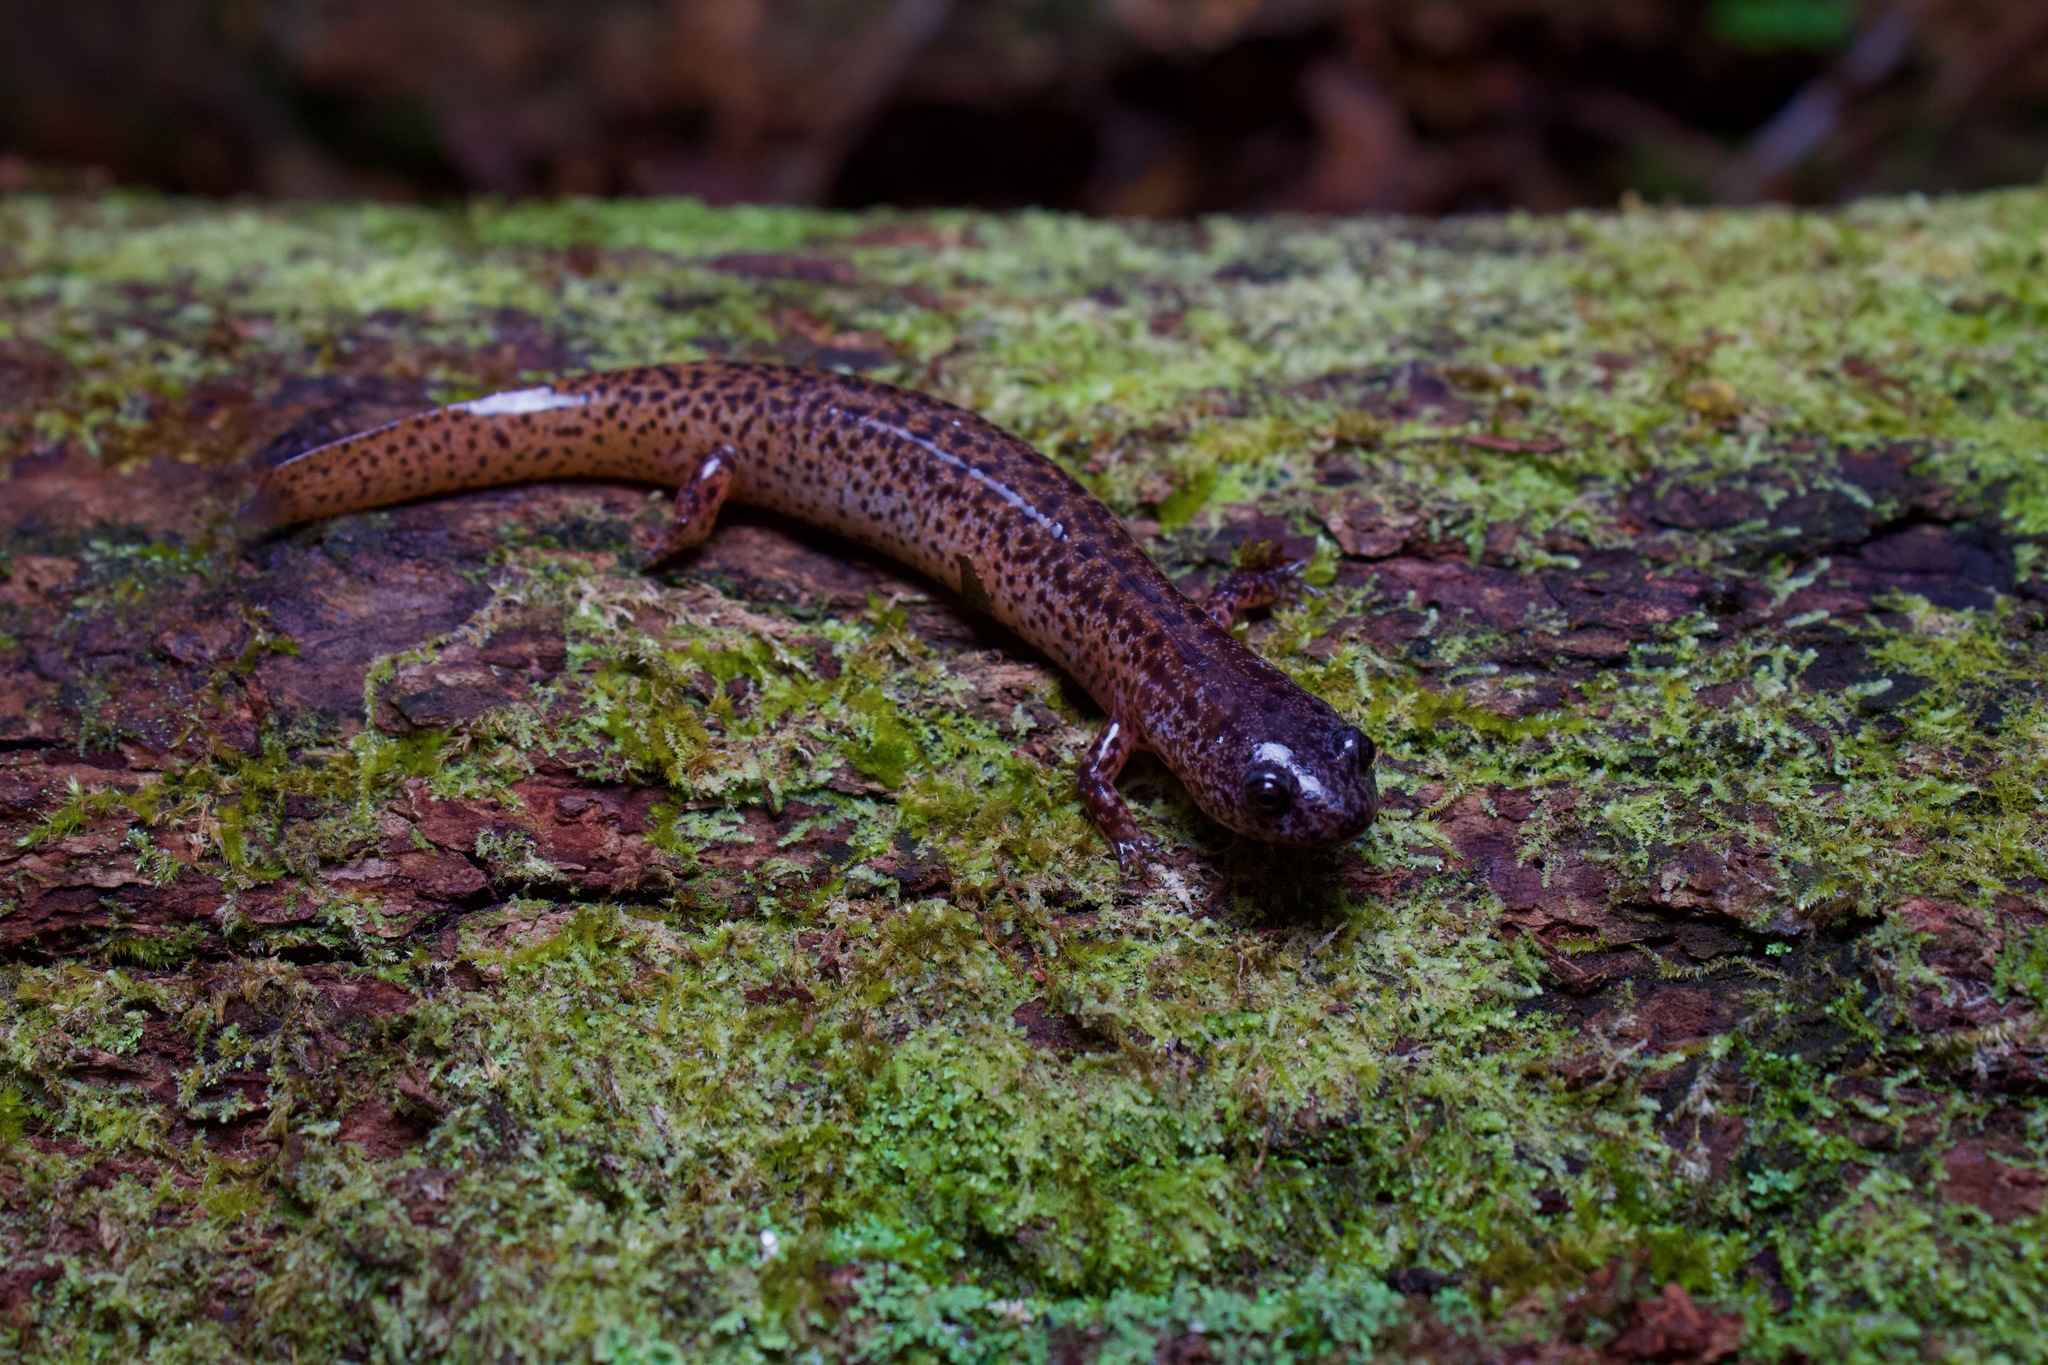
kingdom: Animalia
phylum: Chordata
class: Amphibia
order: Caudata
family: Plethodontidae
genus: Pseudotriton
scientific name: Pseudotriton ruber
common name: Red salamander
